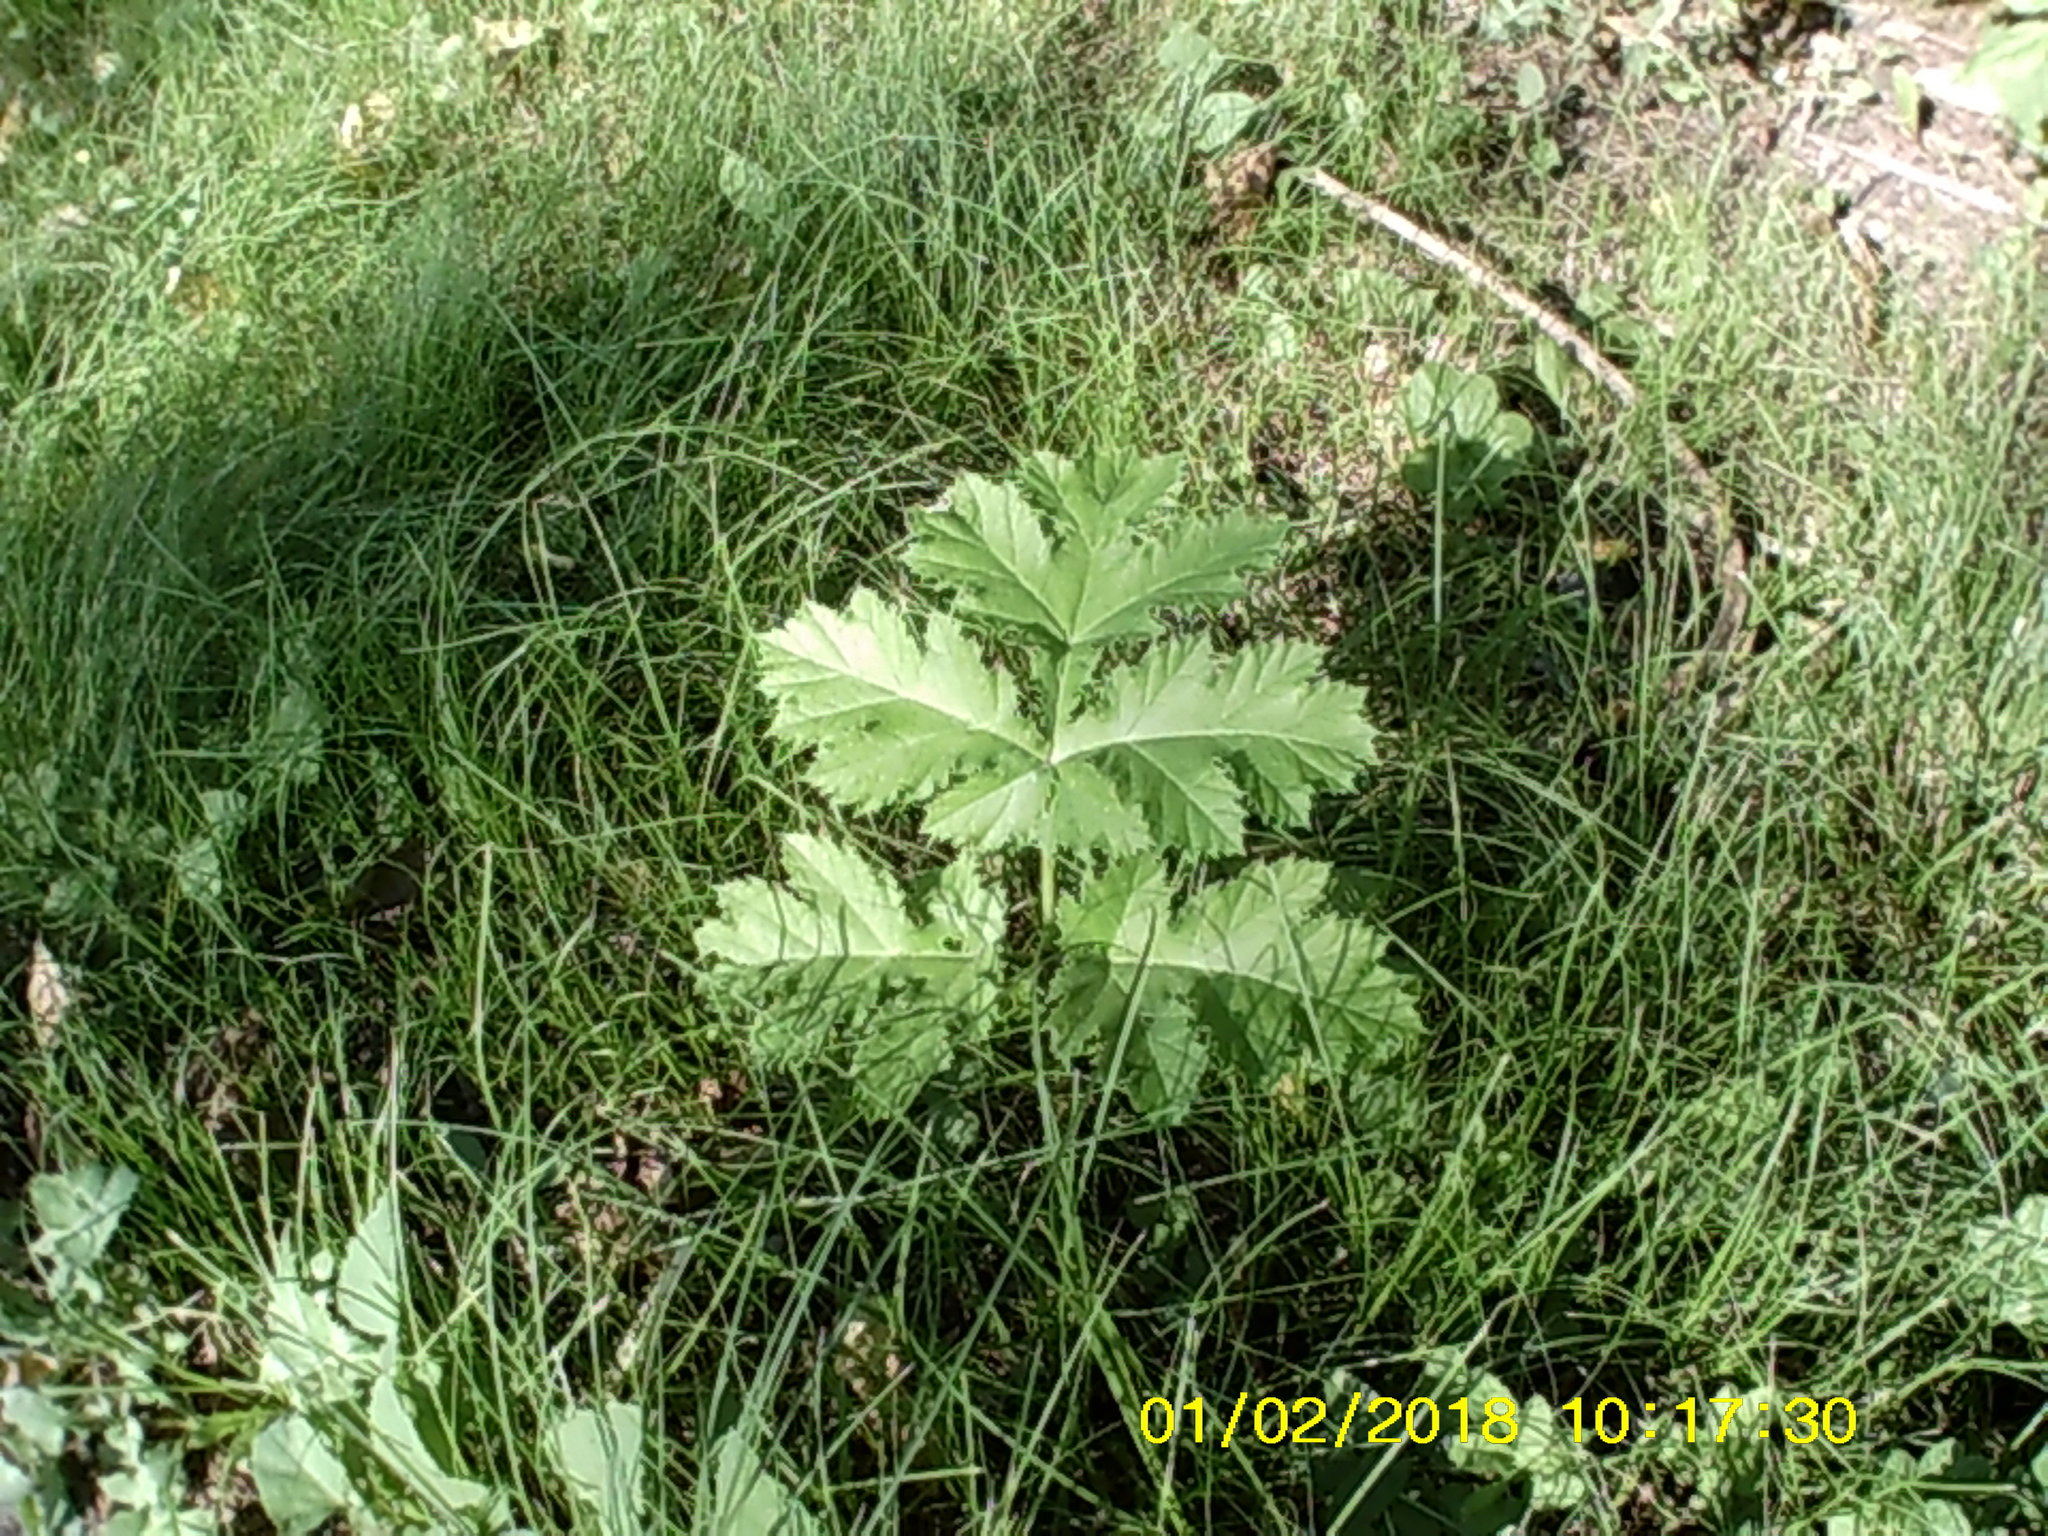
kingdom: Plantae
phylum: Tracheophyta
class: Magnoliopsida
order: Apiales
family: Apiaceae
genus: Heracleum
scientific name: Heracleum sosnowskyi
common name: Sosnowsky's hogweed
